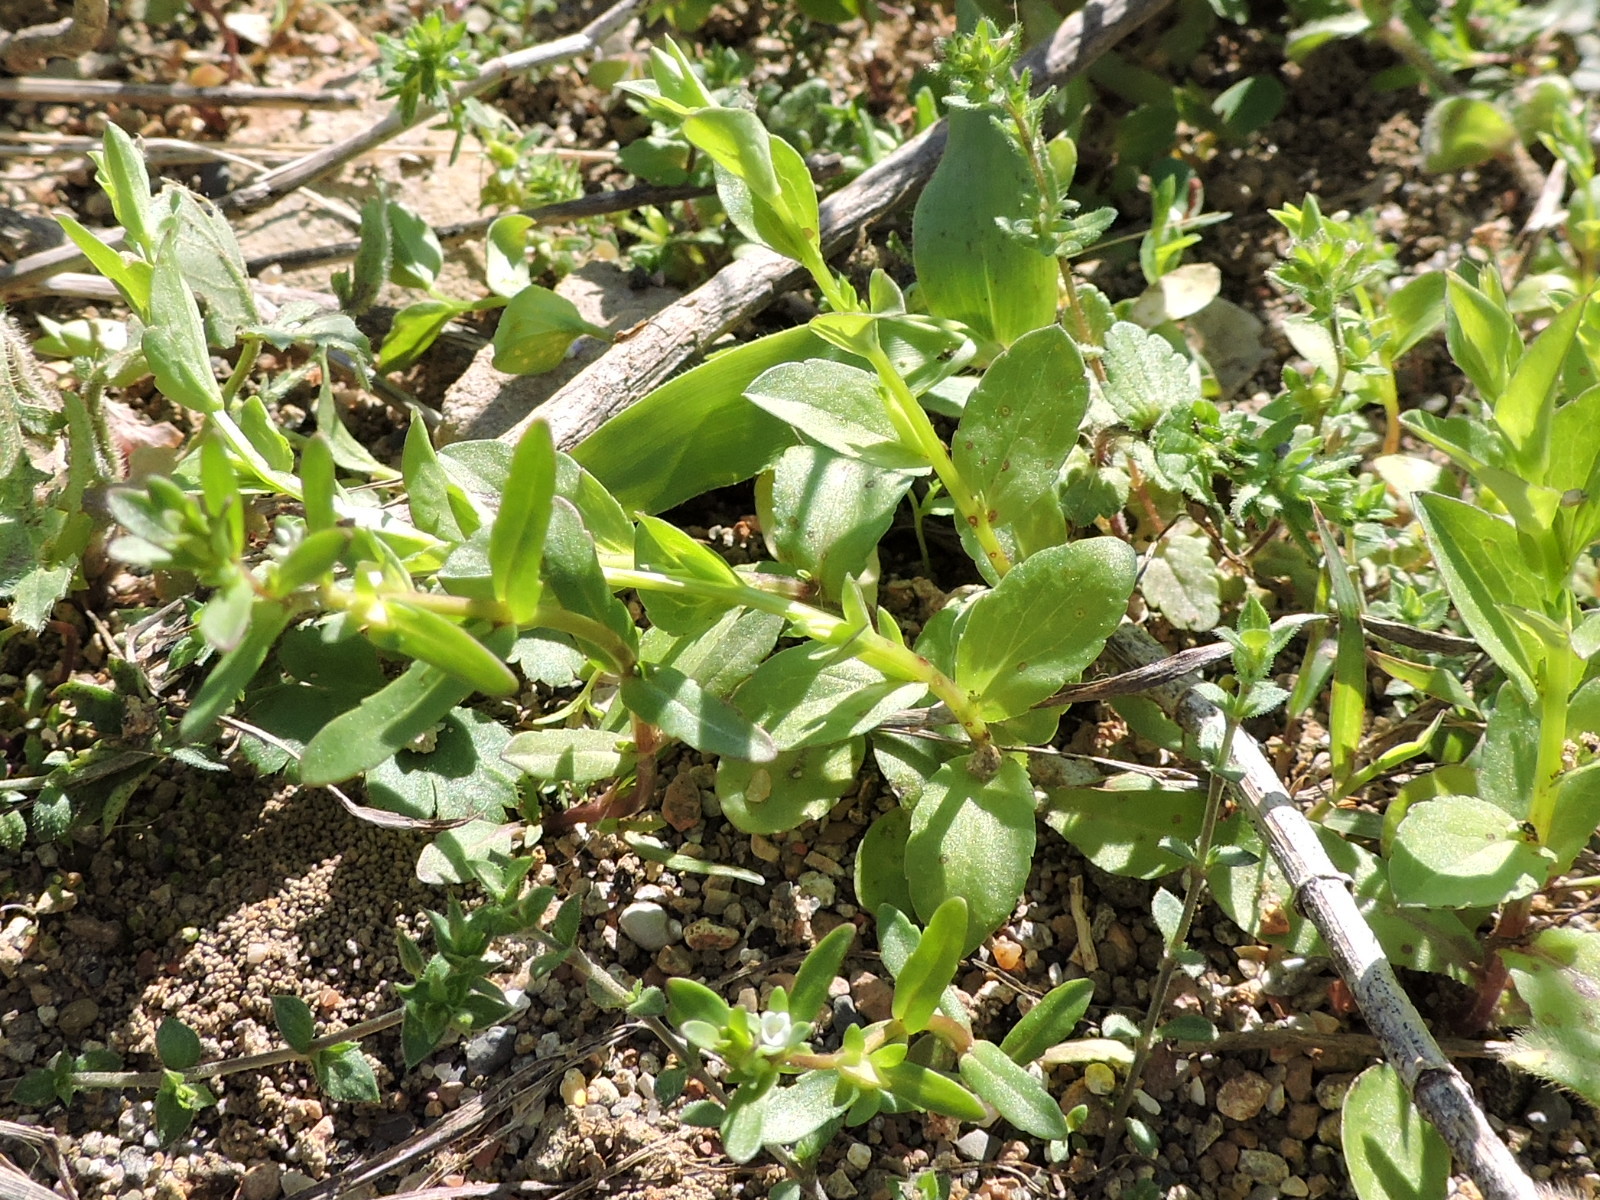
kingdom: Plantae
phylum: Tracheophyta
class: Magnoliopsida
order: Lamiales
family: Plantaginaceae
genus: Veronica
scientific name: Veronica peregrina
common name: Neckweed
